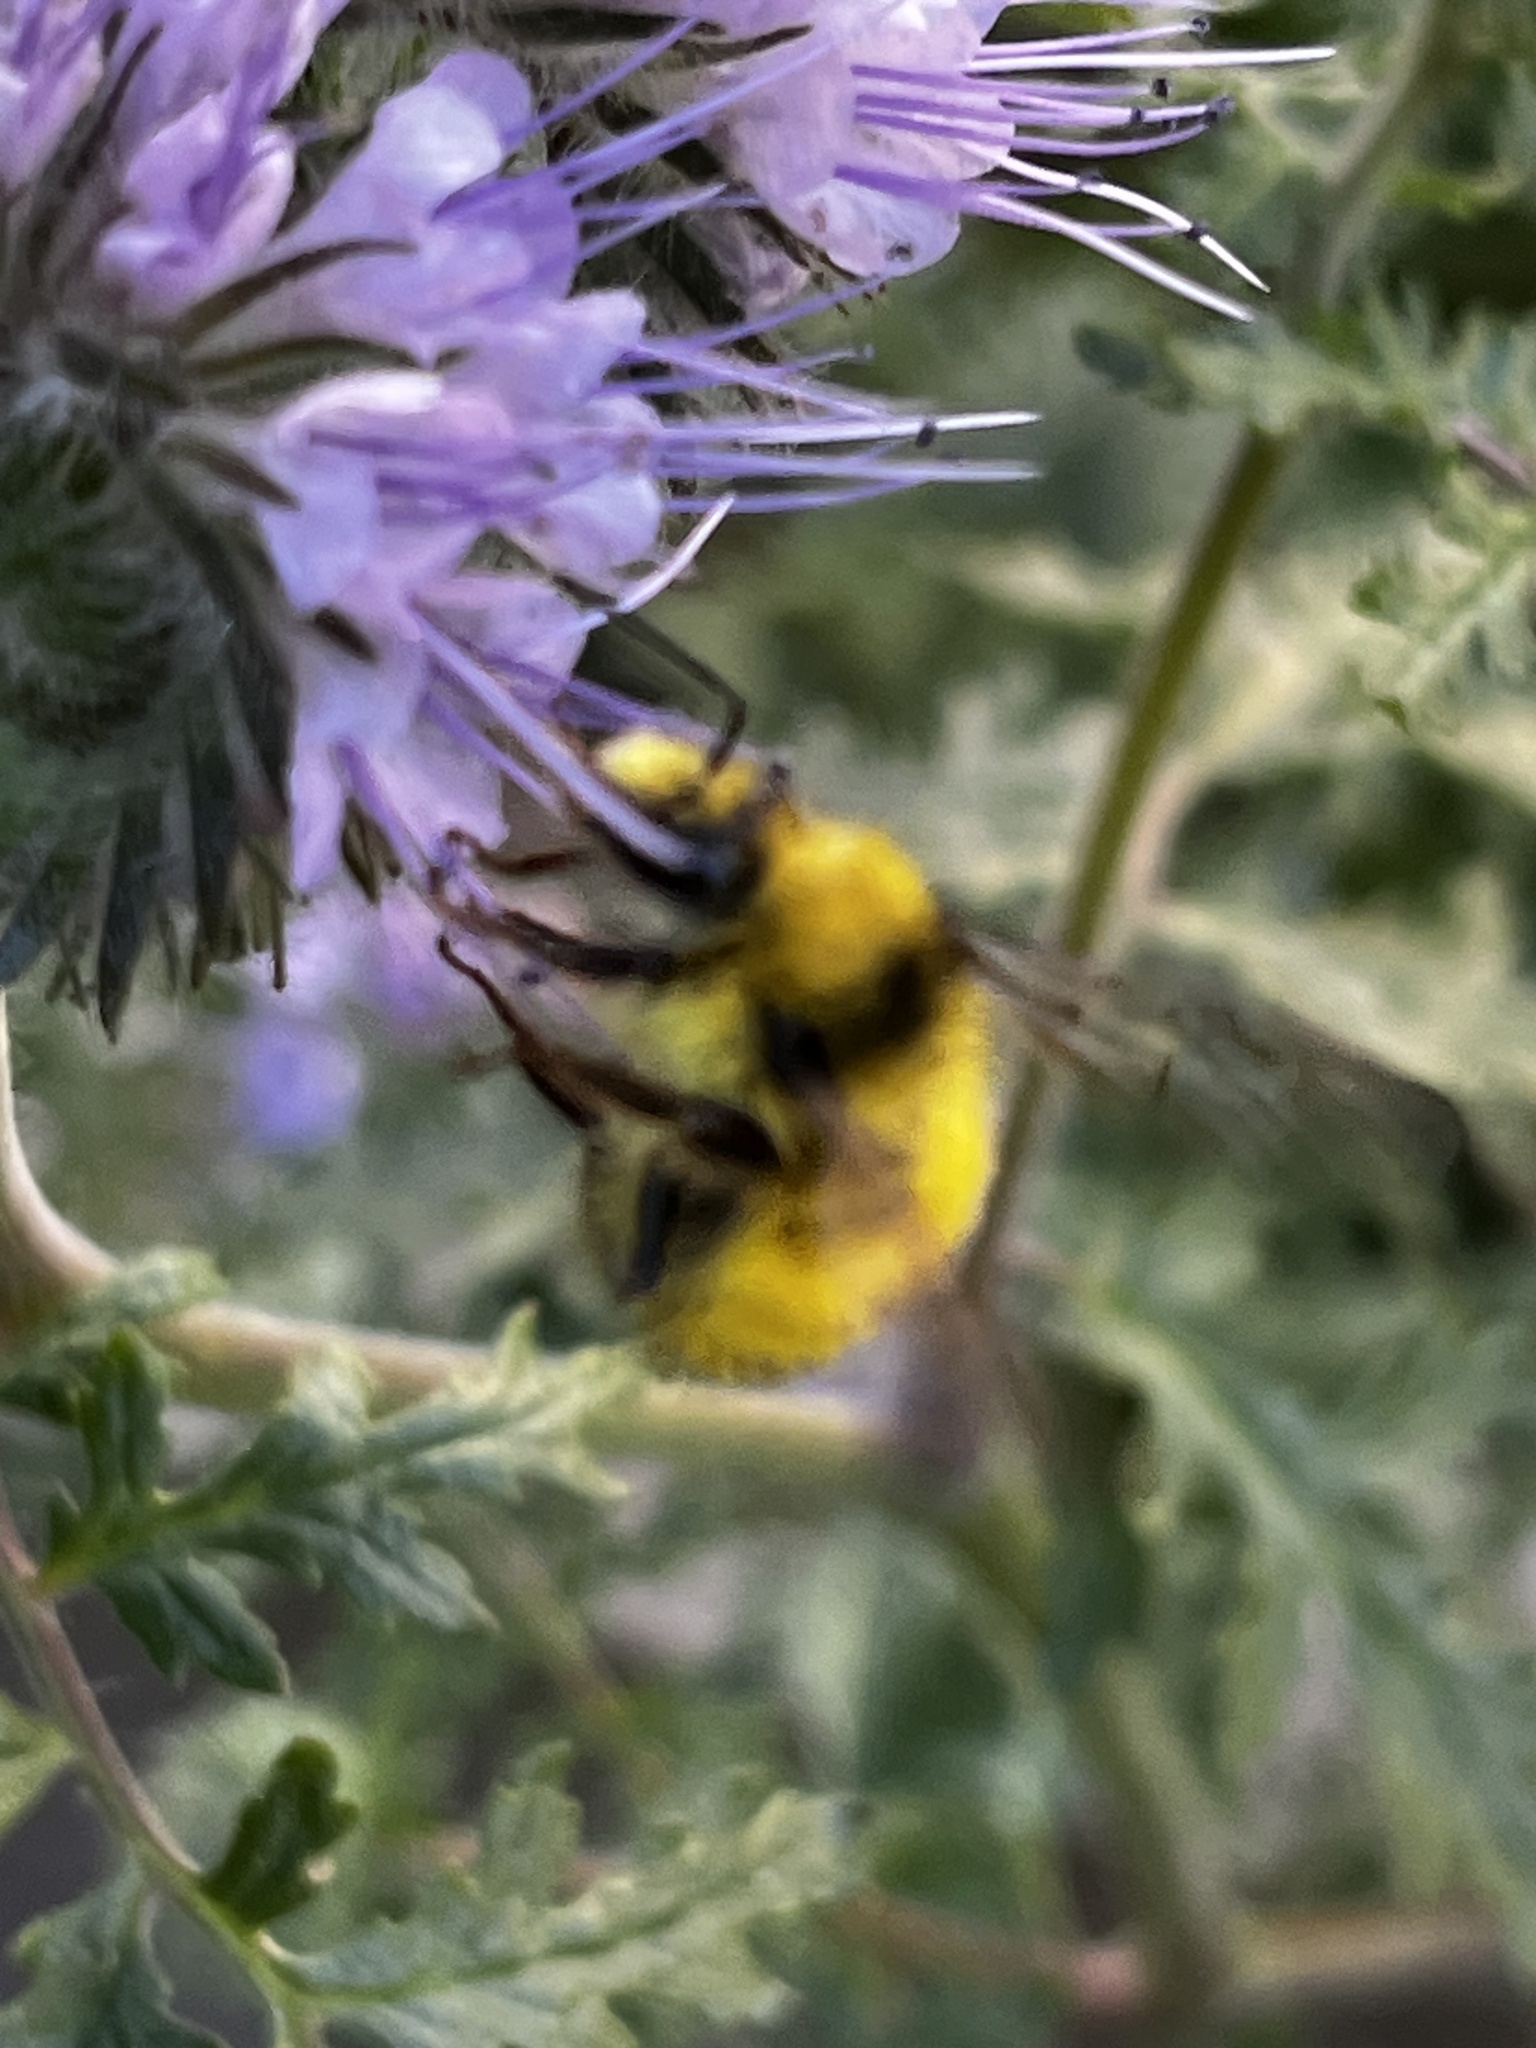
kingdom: Animalia
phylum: Arthropoda
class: Insecta
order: Hymenoptera
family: Apidae
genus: Bombus
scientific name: Bombus flavifrons
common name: Yellow head bumble bee
